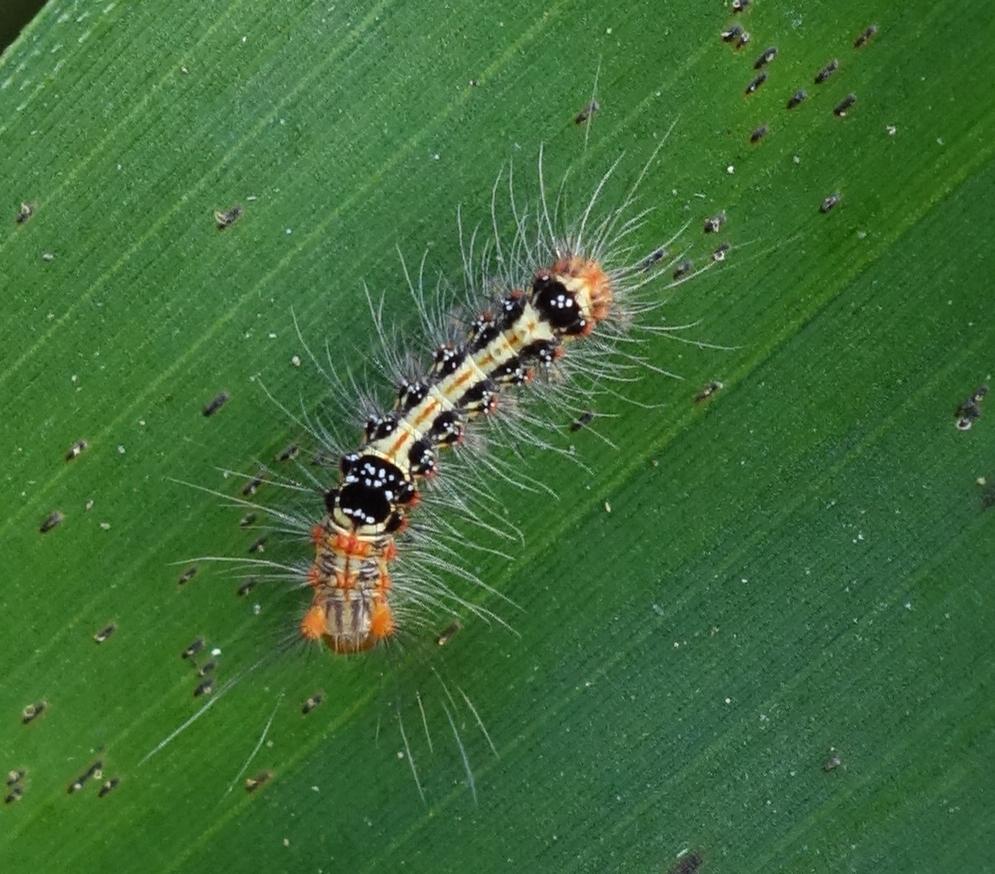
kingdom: Animalia
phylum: Arthropoda
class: Insecta
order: Lepidoptera
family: Erebidae
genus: Euproctis
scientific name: Euproctis taiwana
